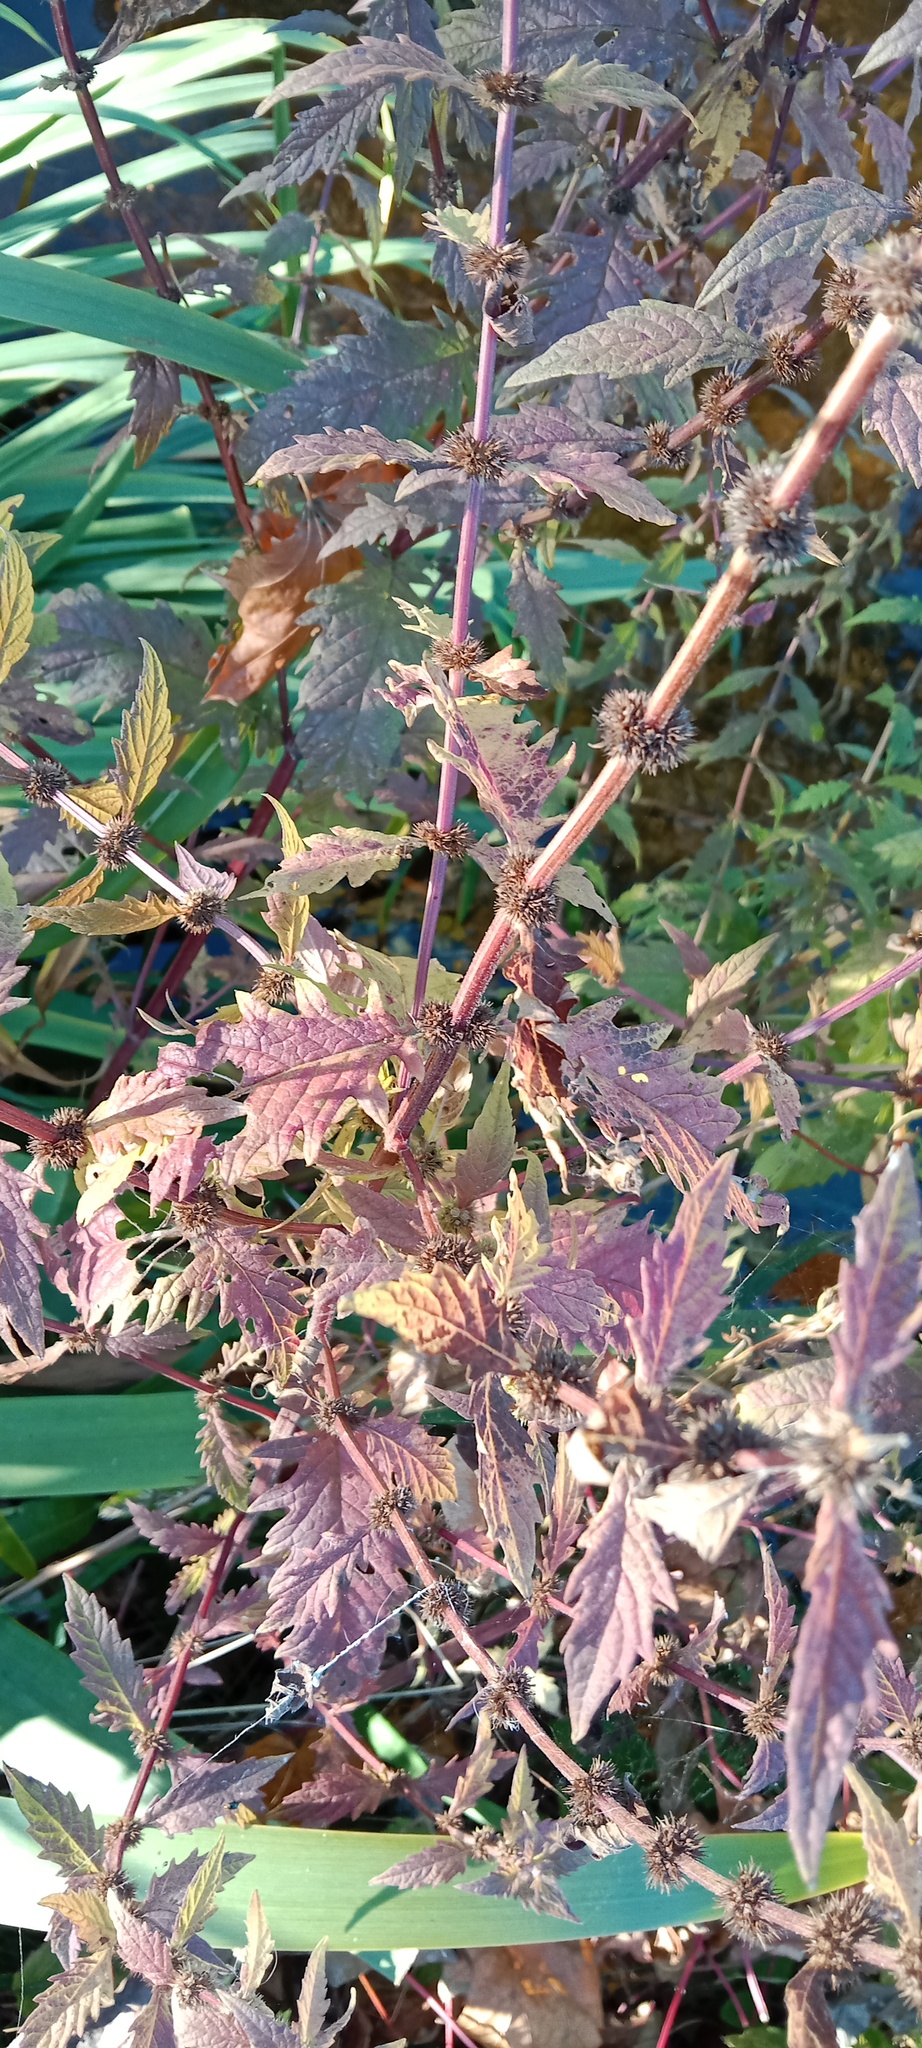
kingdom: Plantae
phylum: Tracheophyta
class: Magnoliopsida
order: Lamiales
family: Lamiaceae
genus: Lycopus
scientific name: Lycopus europaeus
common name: European bugleweed
